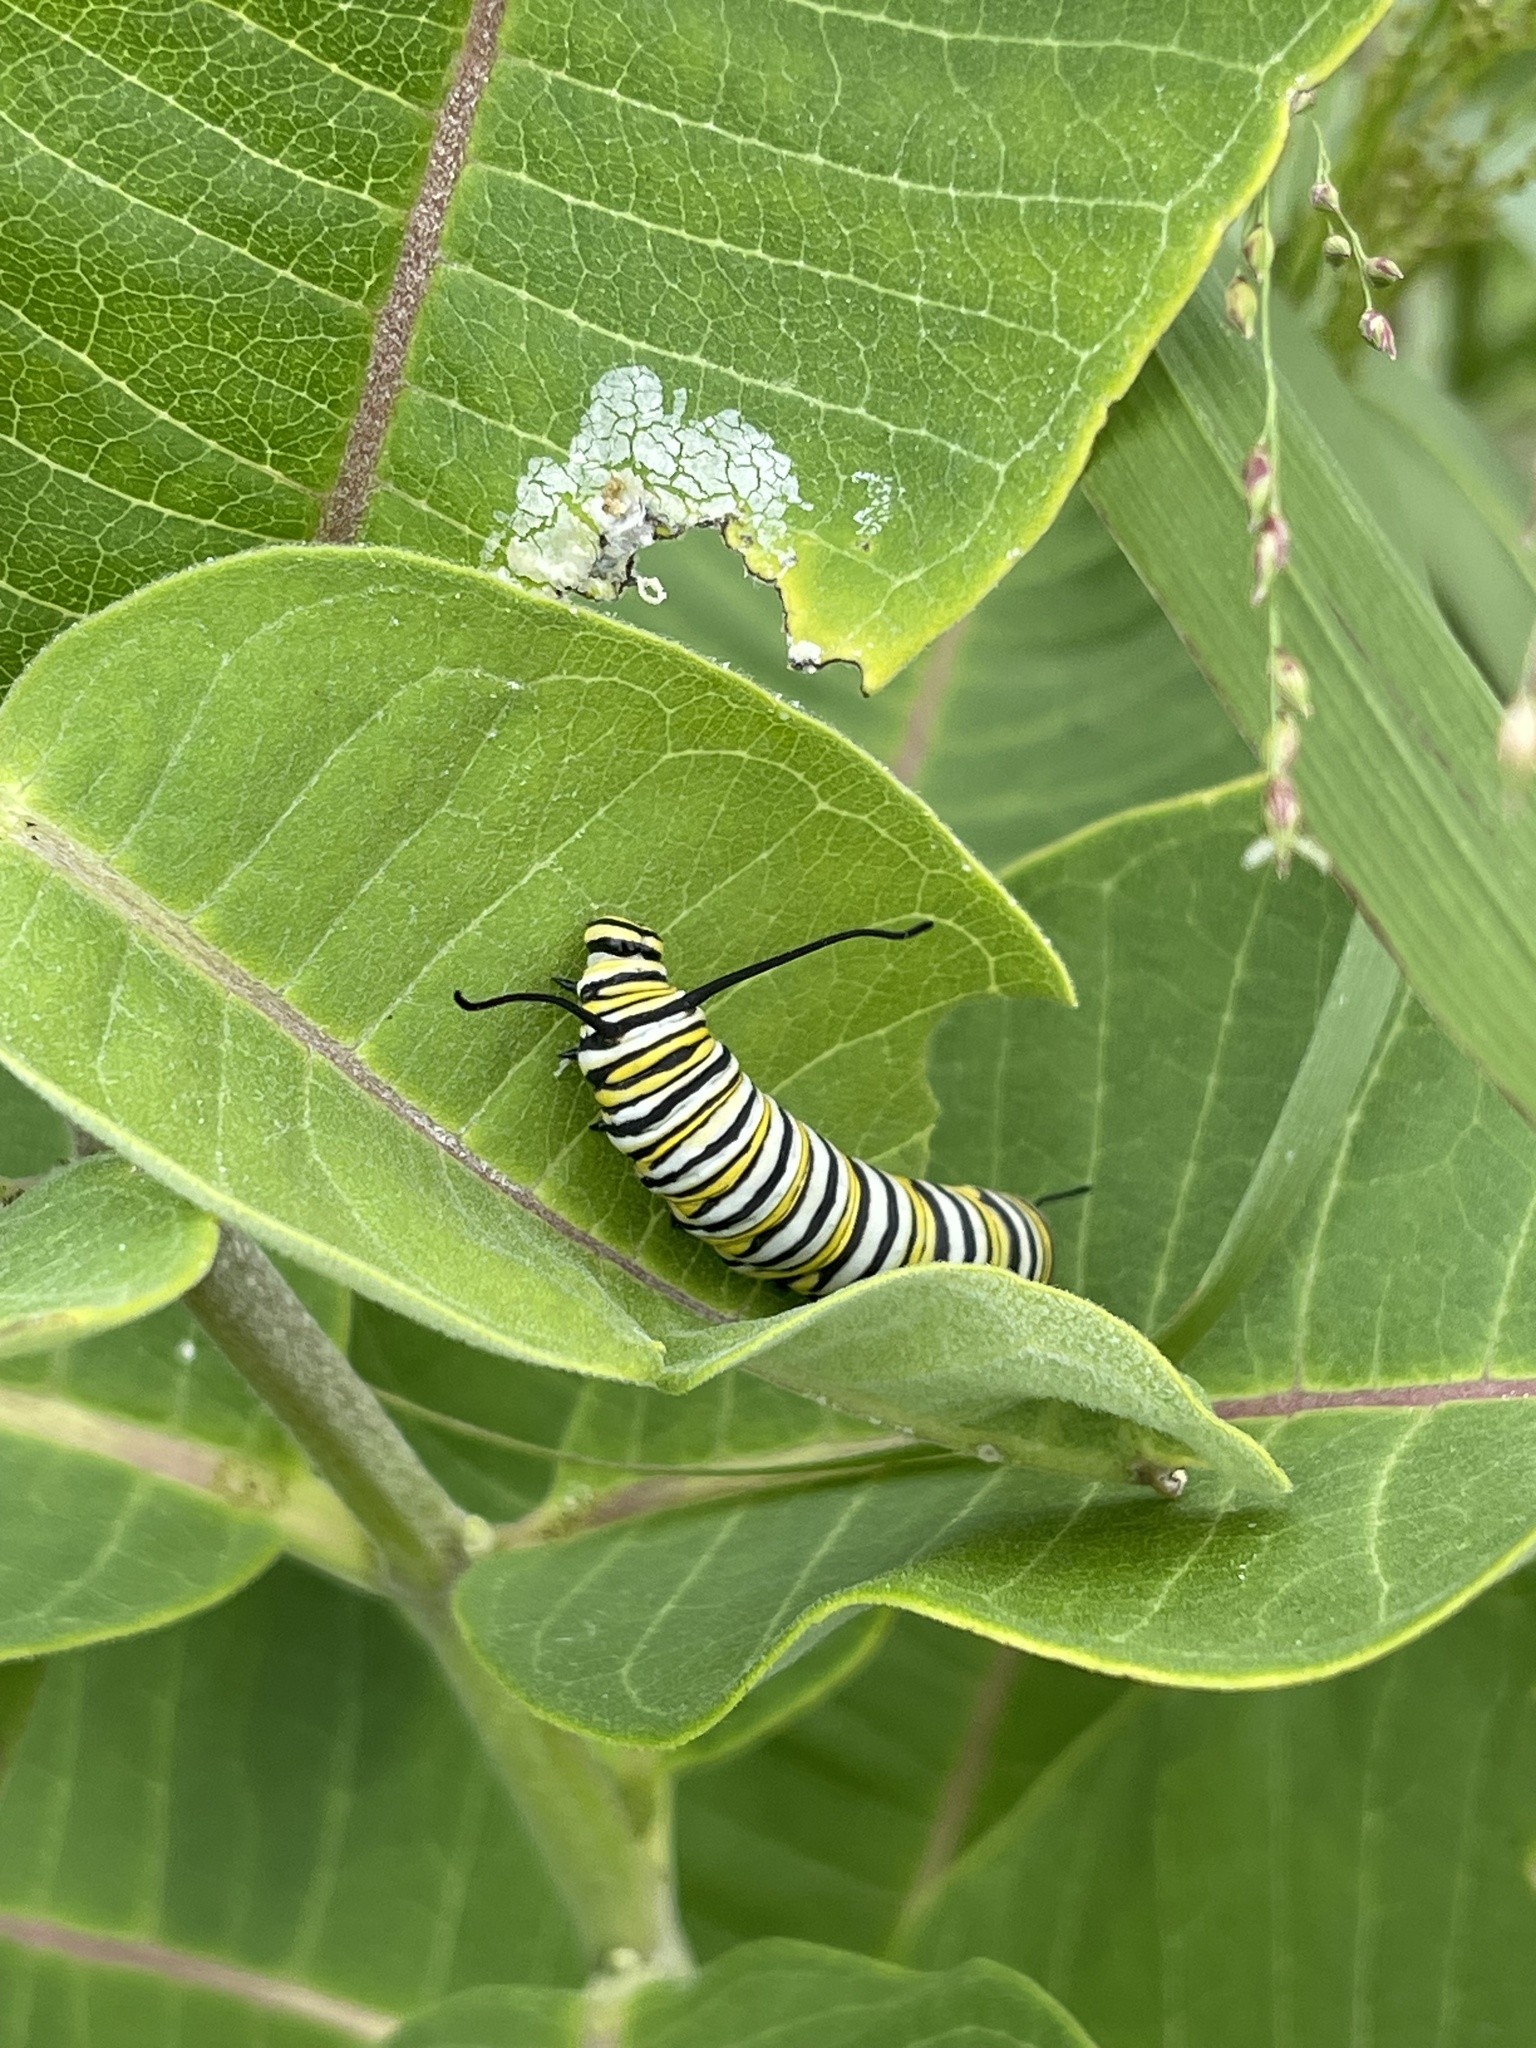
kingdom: Animalia
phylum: Arthropoda
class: Insecta
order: Lepidoptera
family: Nymphalidae
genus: Danaus
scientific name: Danaus plexippus
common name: Monarch
